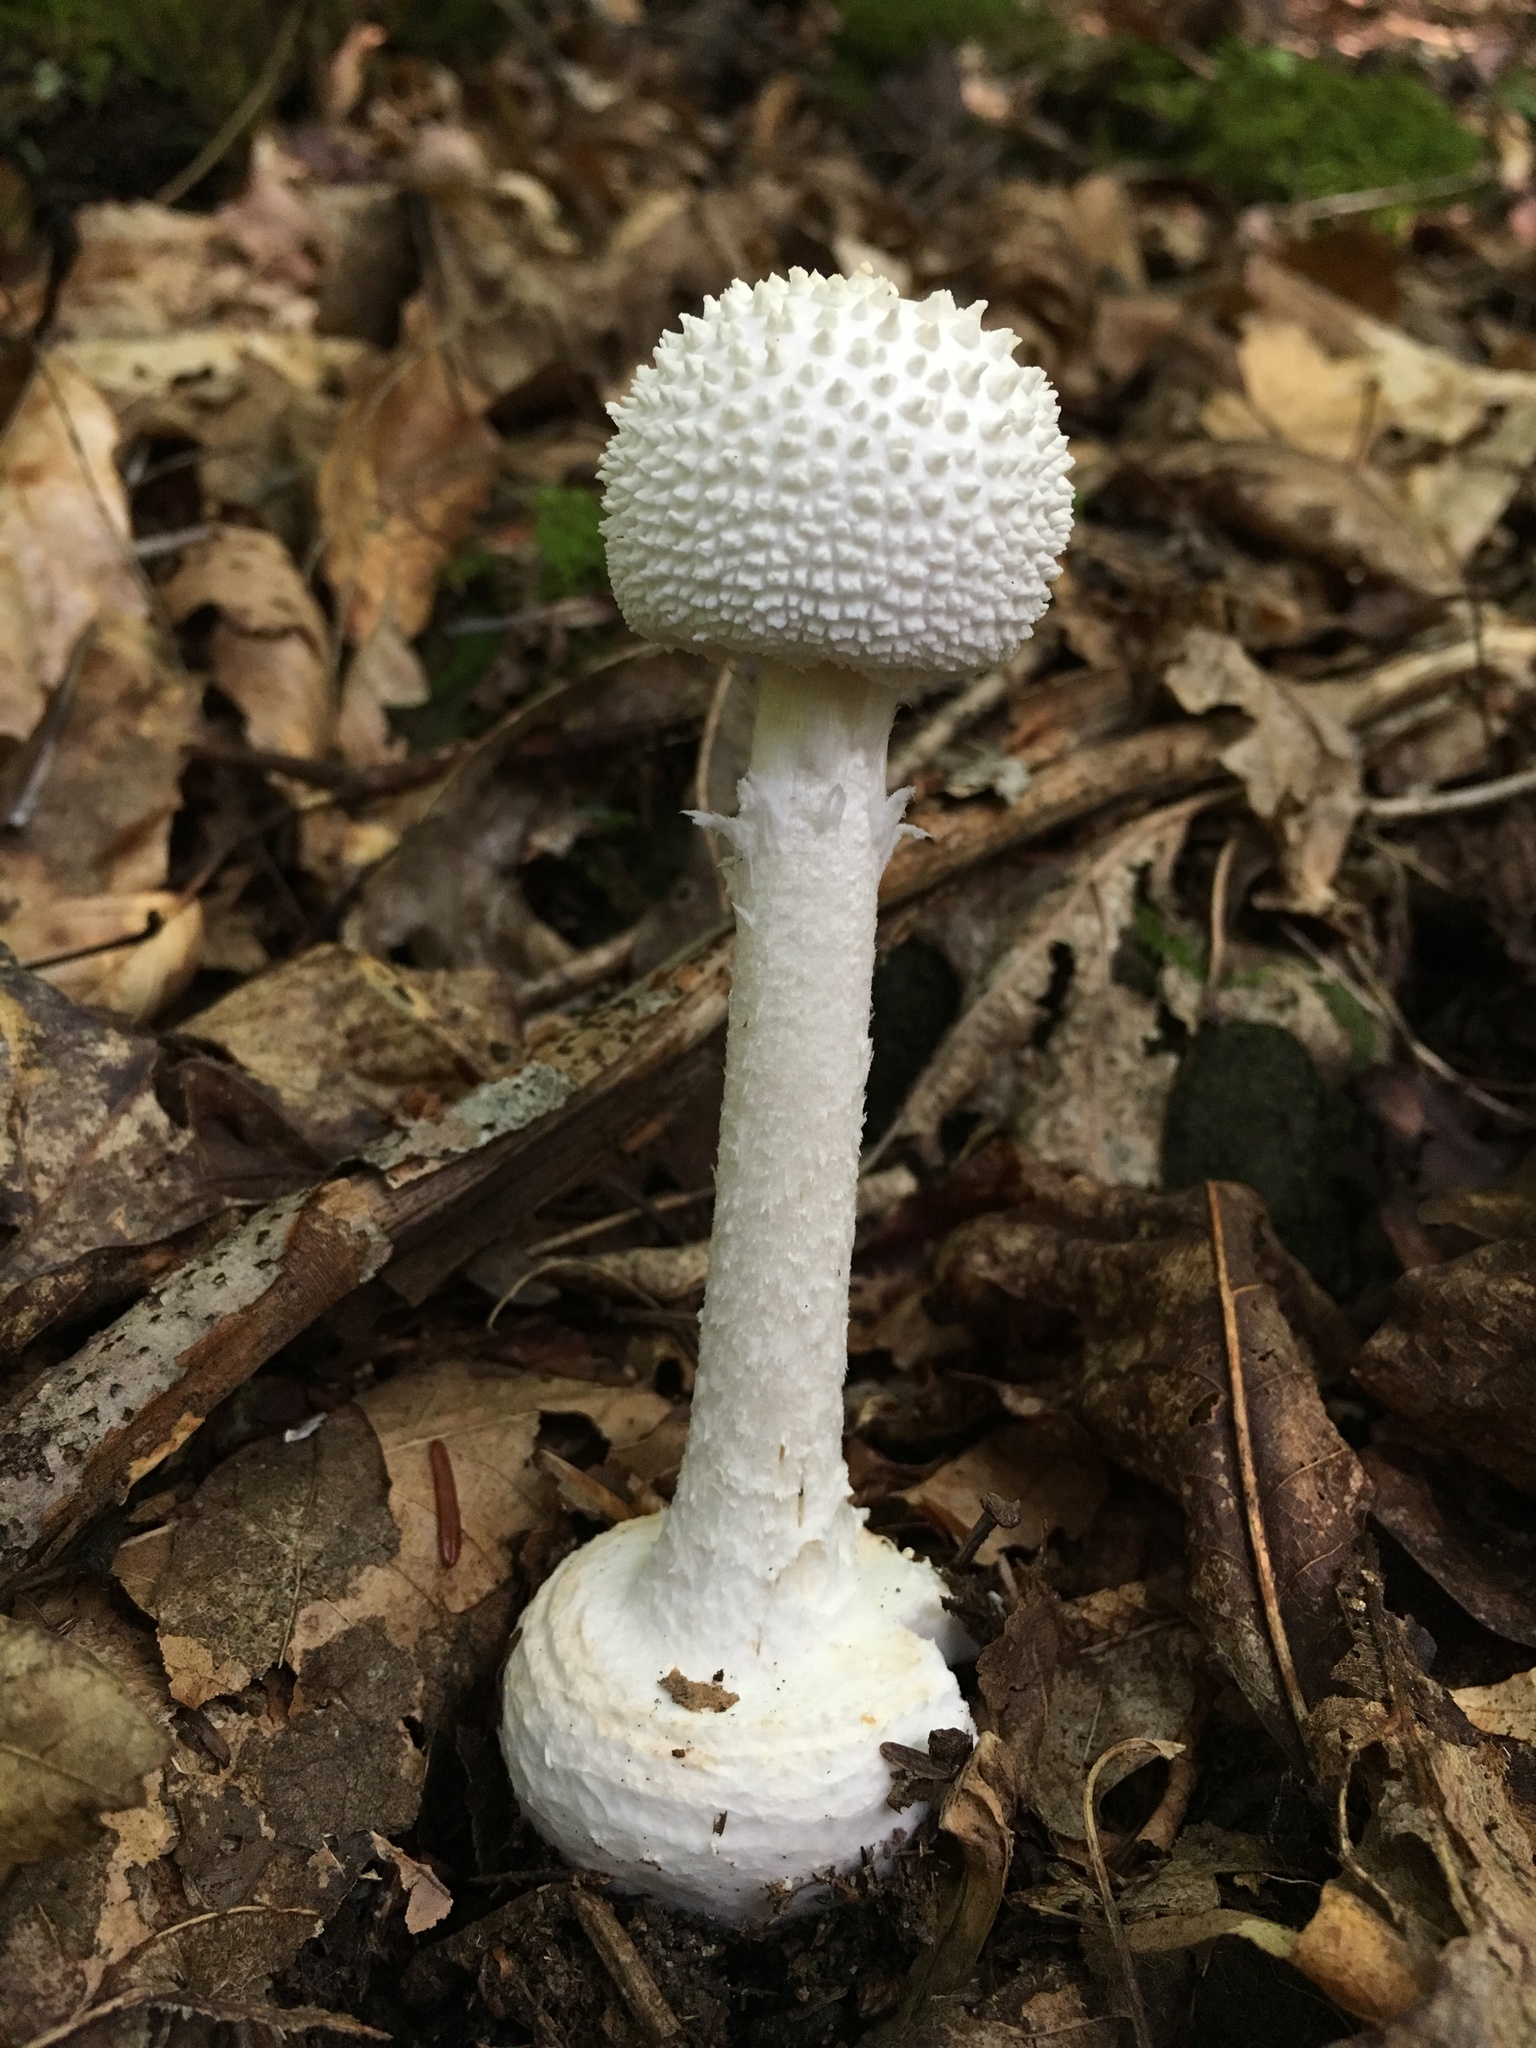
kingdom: Fungi
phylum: Basidiomycota
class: Agaricomycetes
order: Agaricales
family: Amanitaceae
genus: Amanita
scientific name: Amanita abrupta
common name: American abrupt-bulbed lepidella
